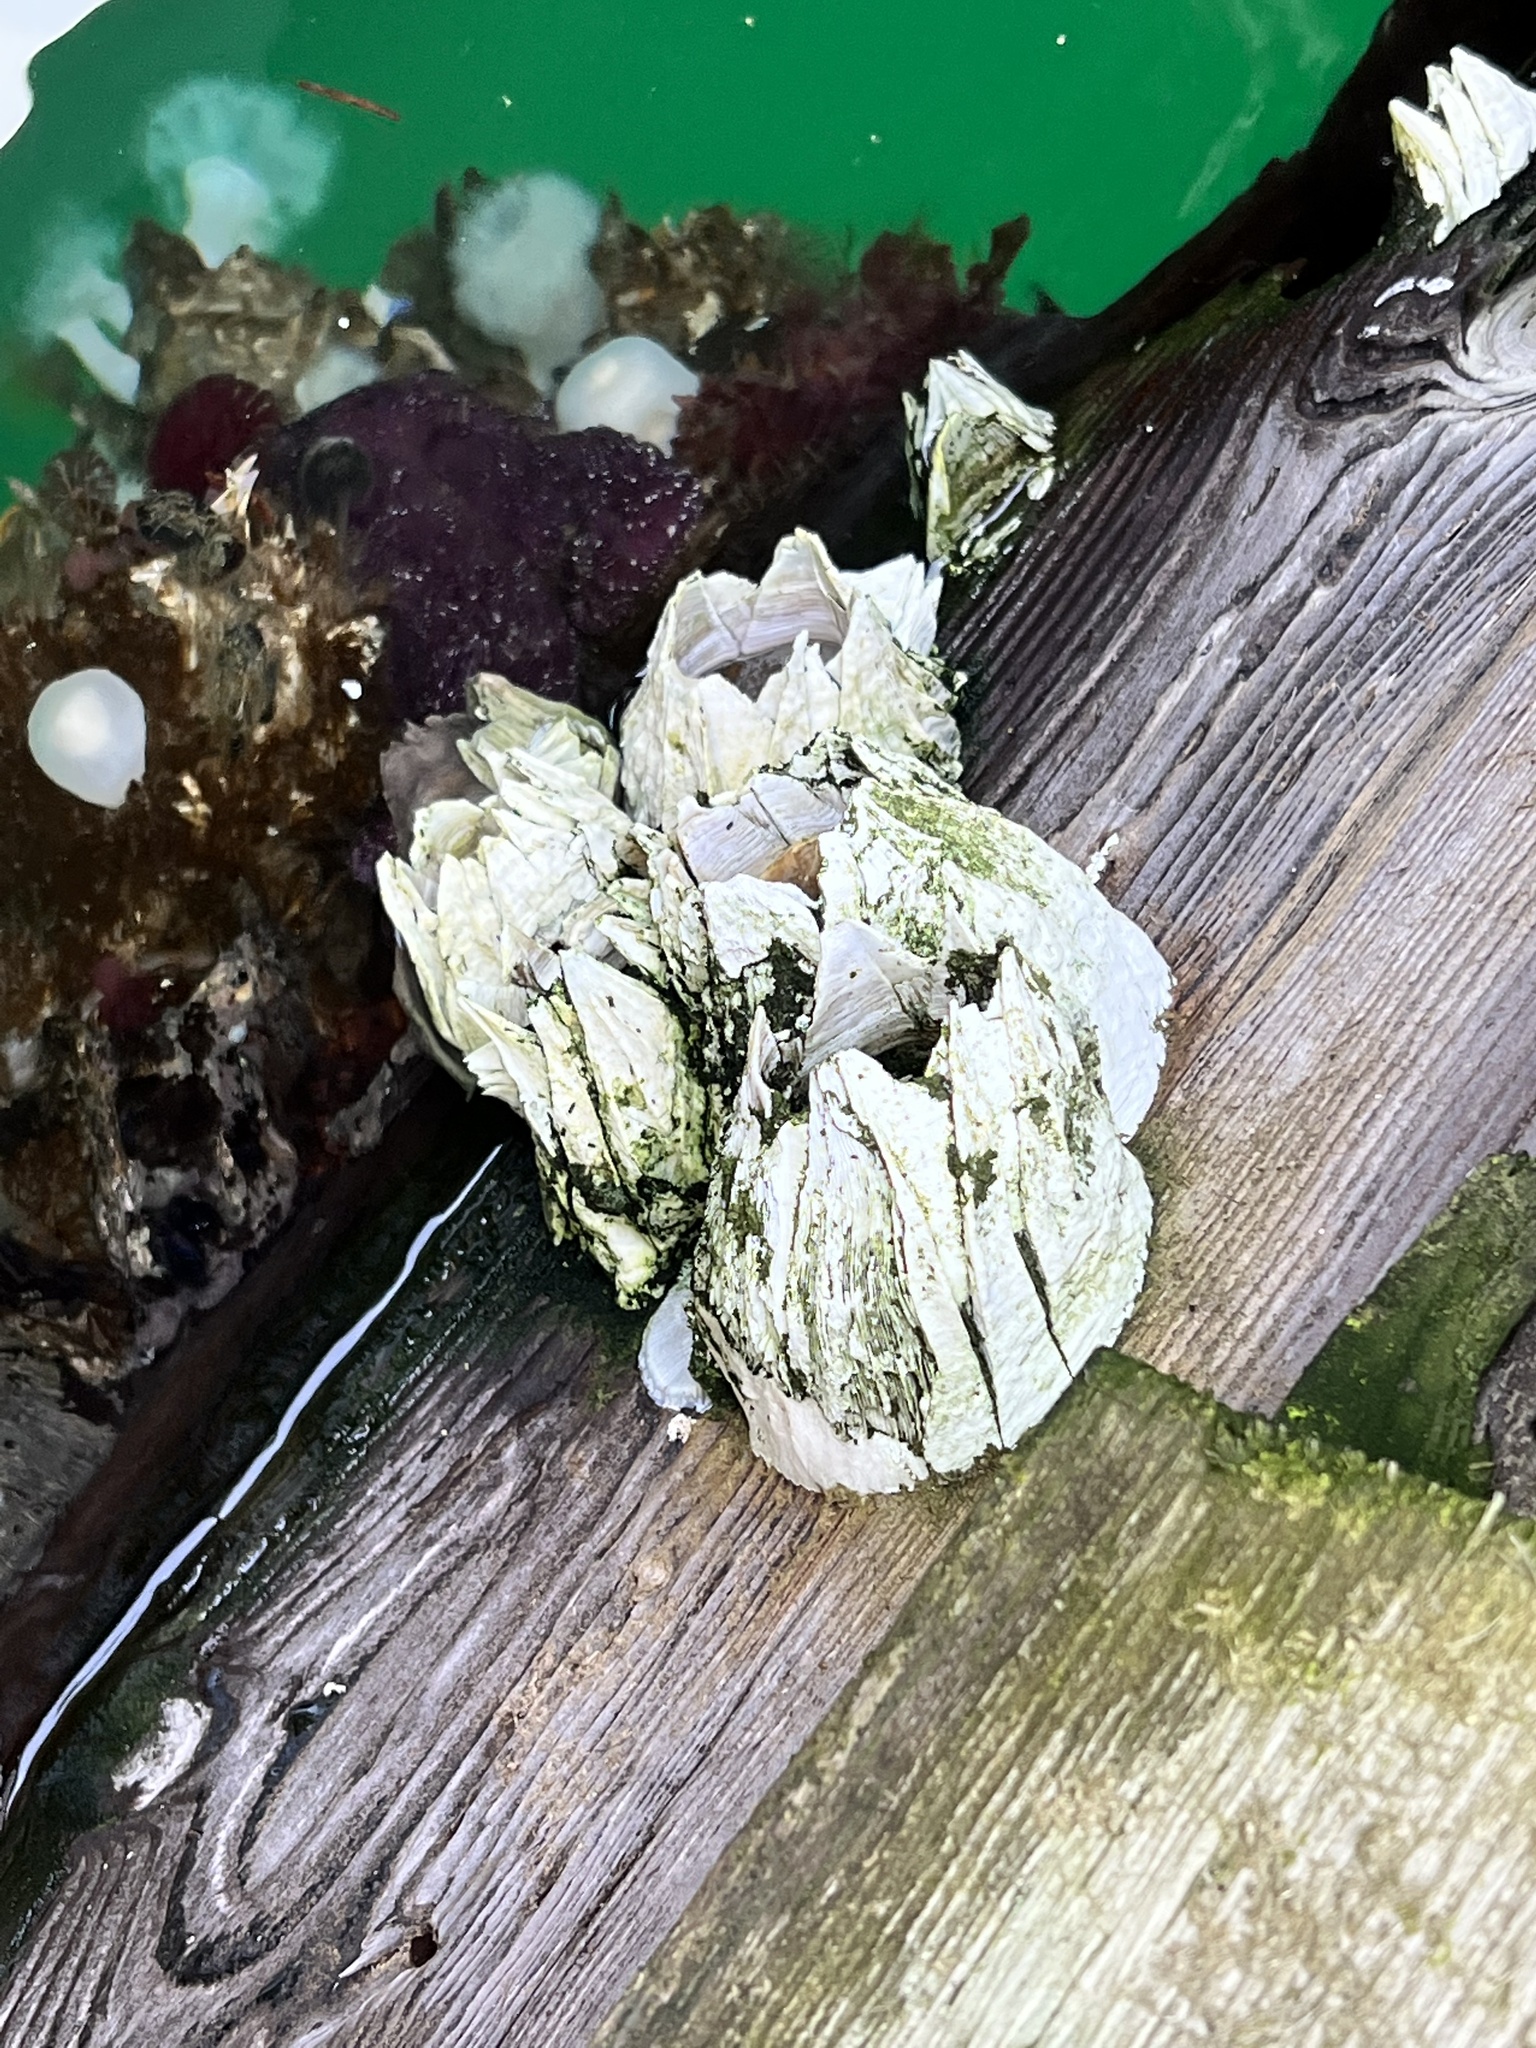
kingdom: Animalia
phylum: Arthropoda
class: Maxillopoda
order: Sessilia
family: Balanidae
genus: Balanus
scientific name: Balanus nubilus
